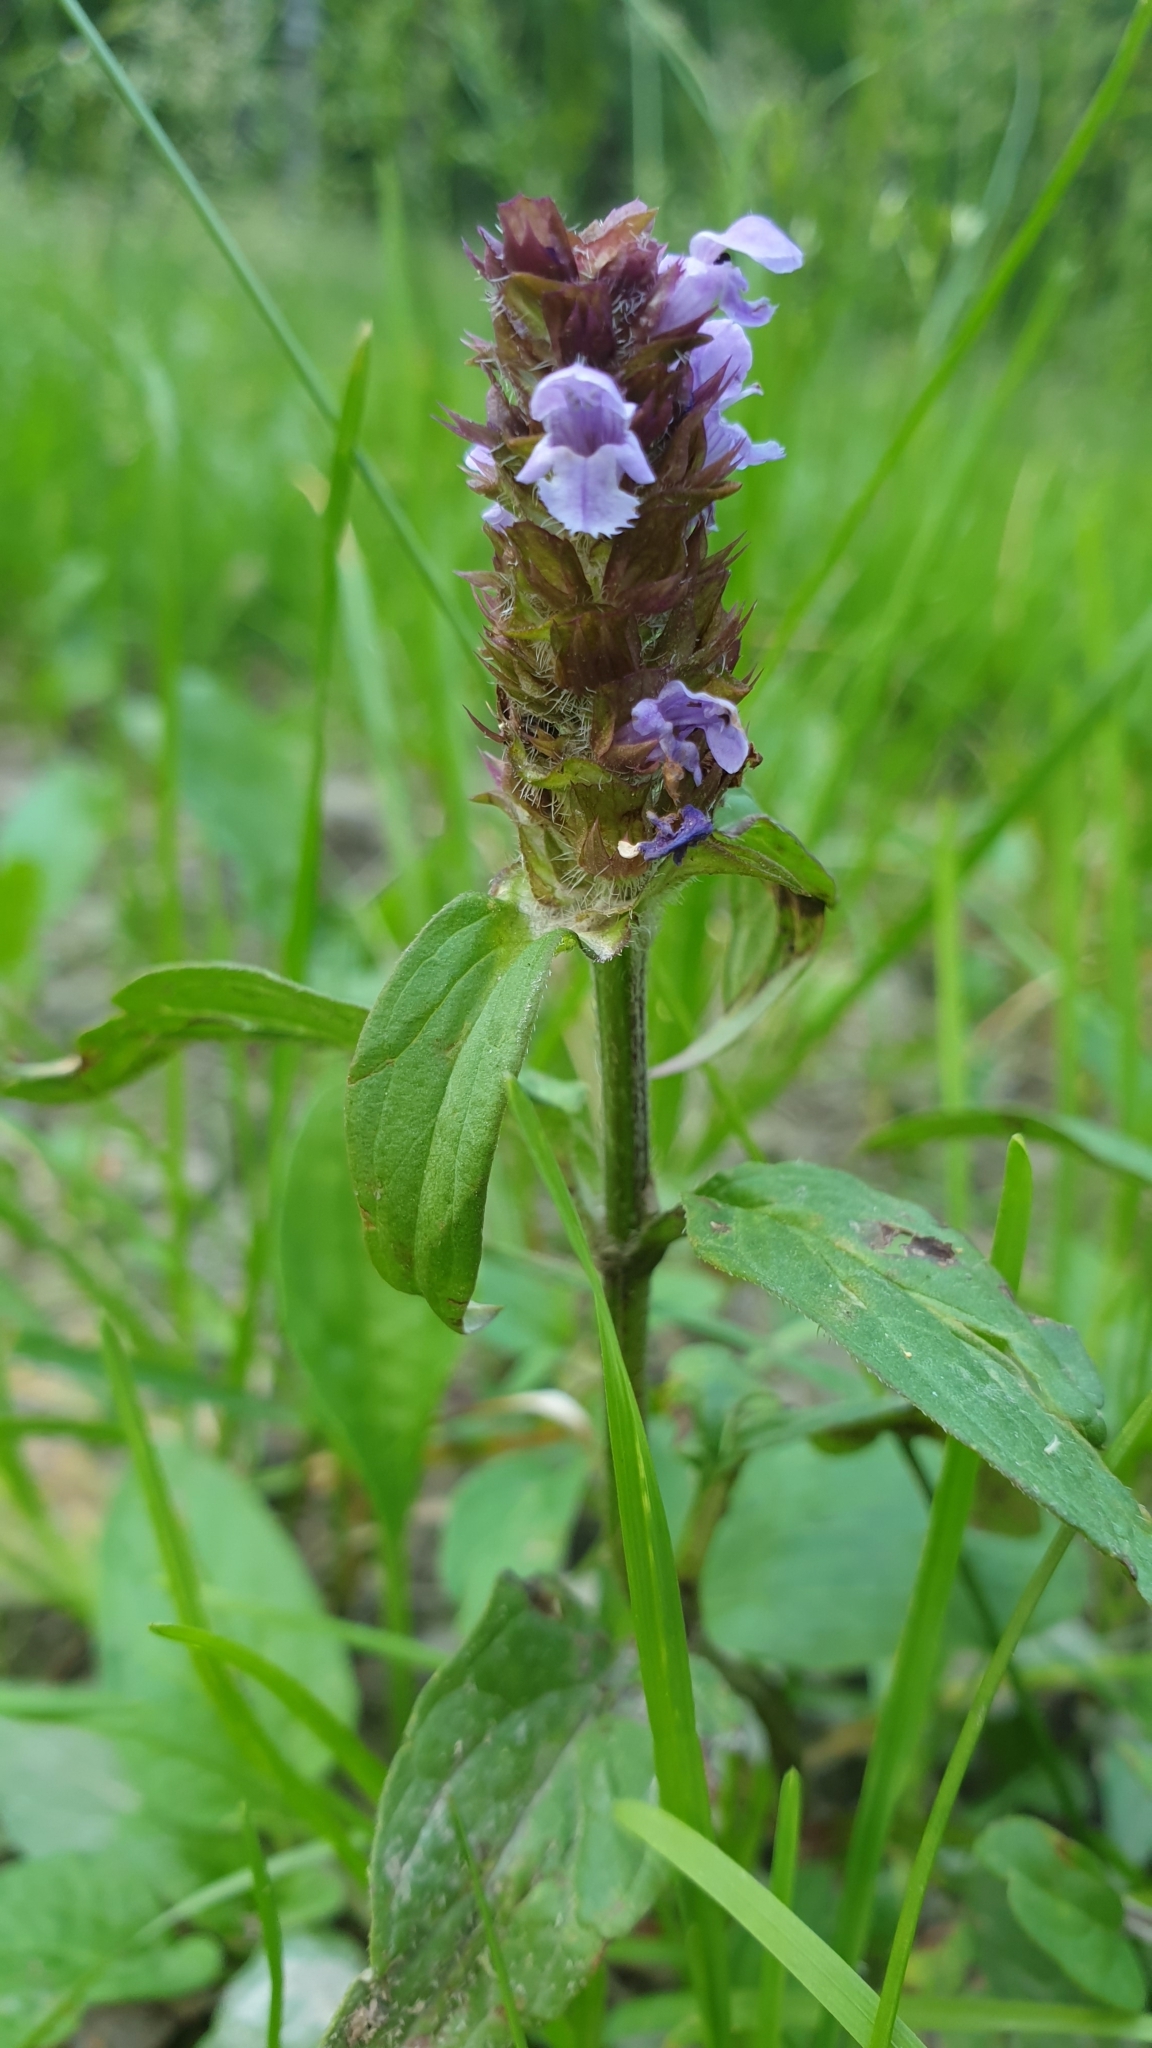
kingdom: Plantae
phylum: Tracheophyta
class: Magnoliopsida
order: Lamiales
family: Lamiaceae
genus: Prunella
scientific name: Prunella vulgaris
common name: Heal-all
